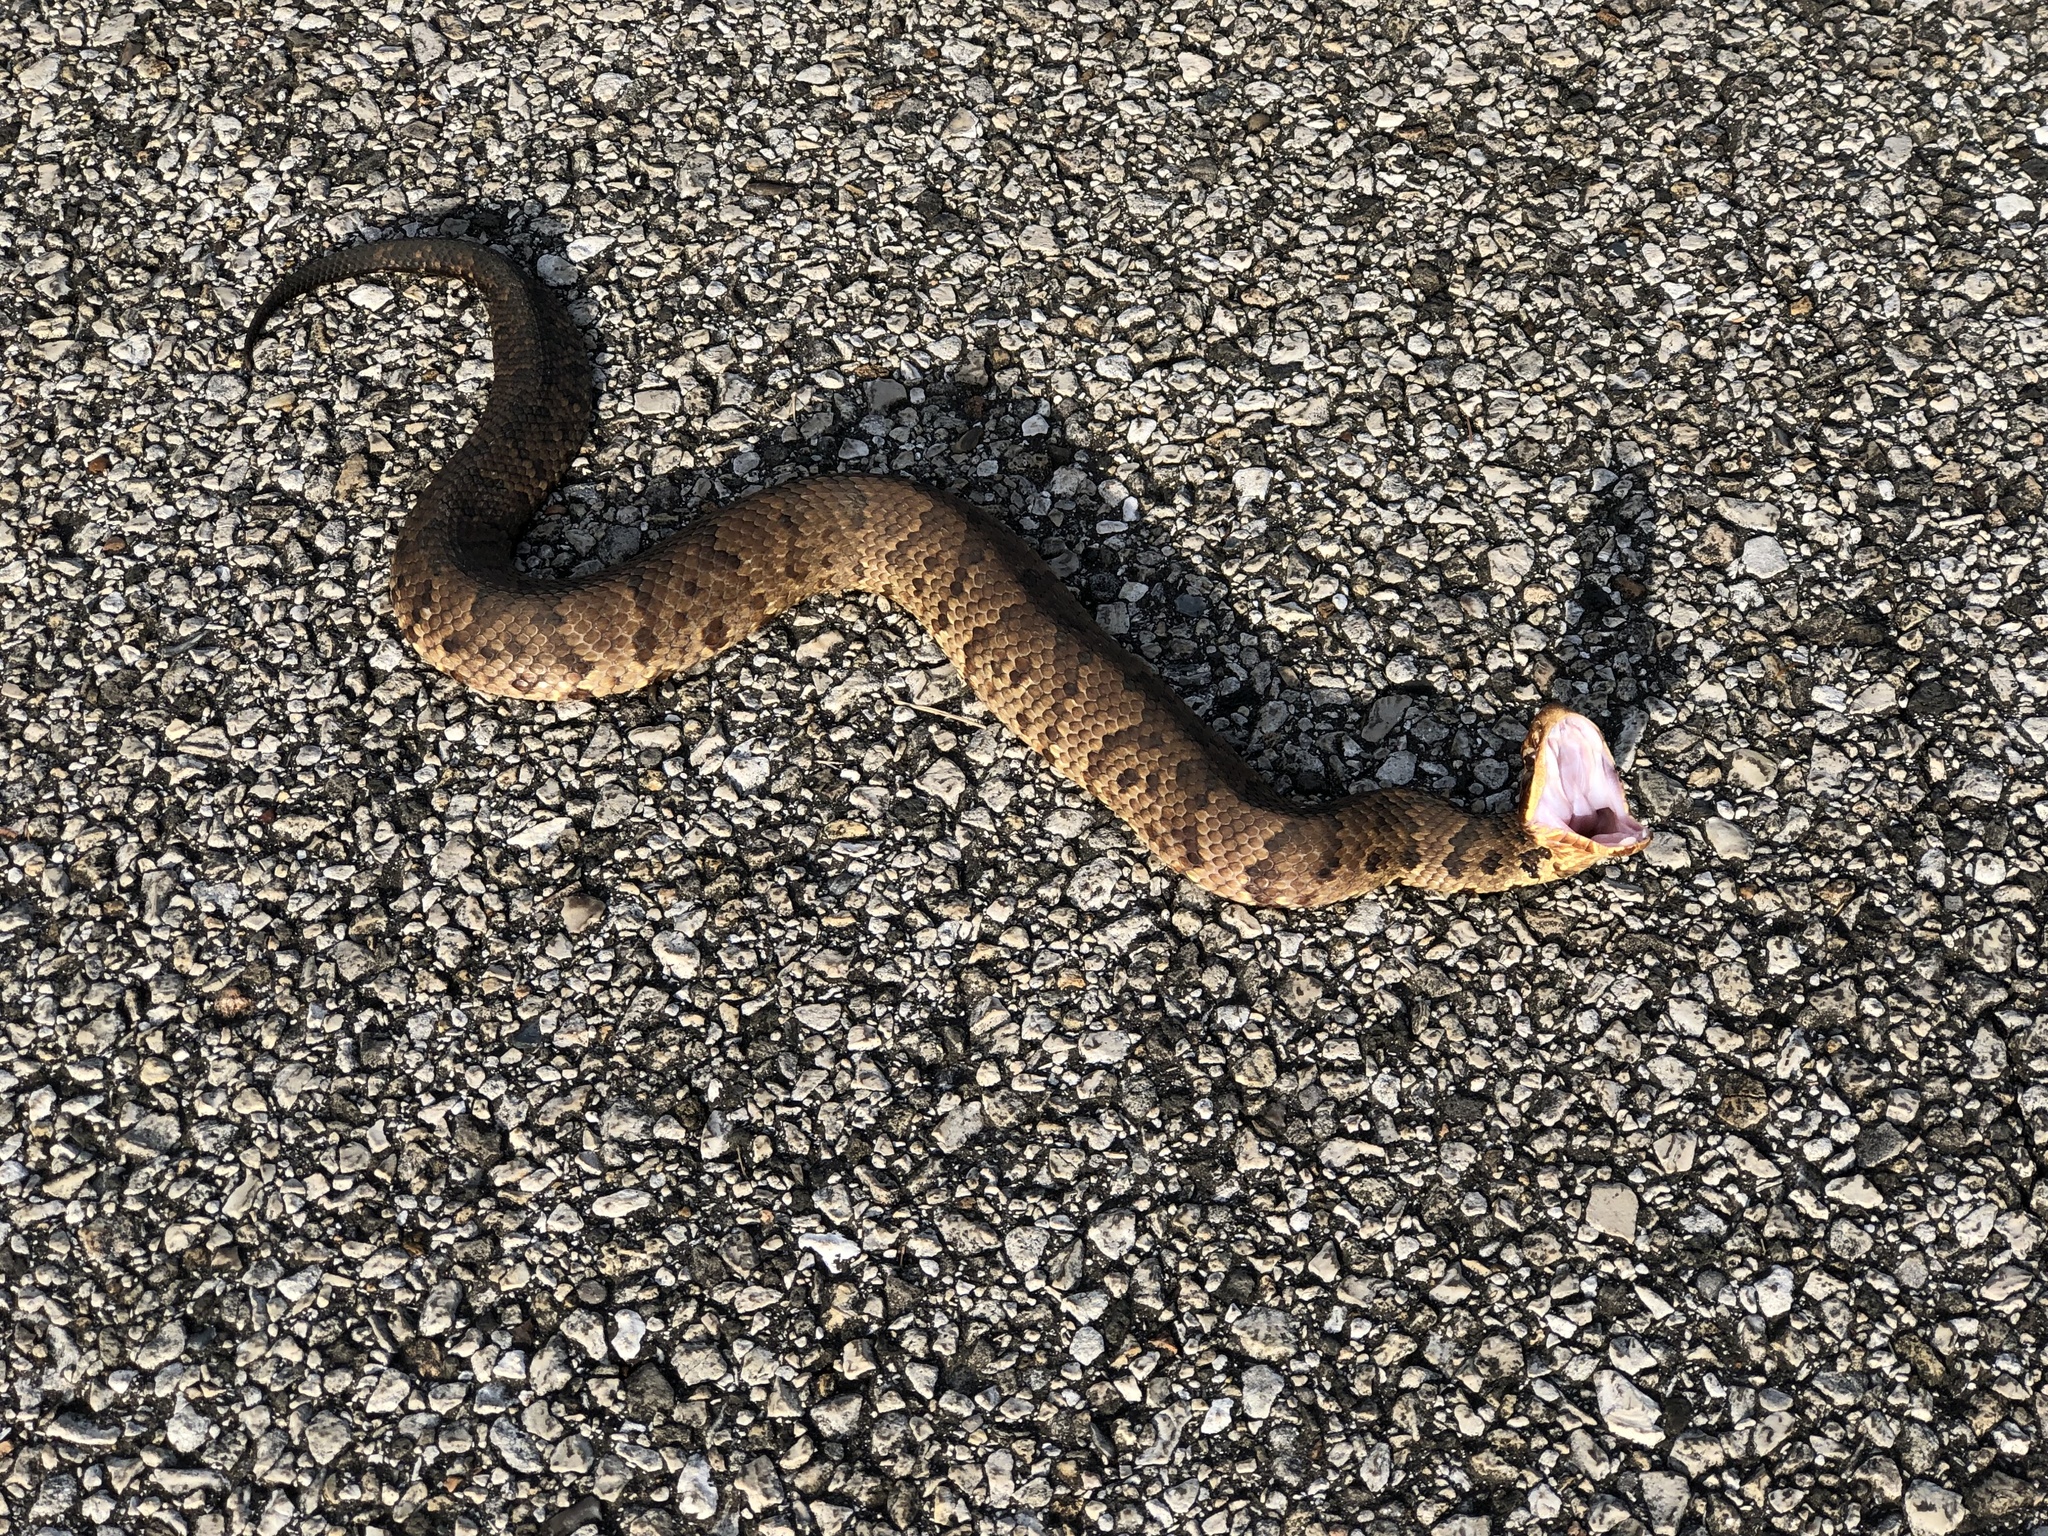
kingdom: Animalia
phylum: Chordata
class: Squamata
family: Viperidae
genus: Agkistrodon
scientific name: Agkistrodon piscivorus
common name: Cottonmouth
